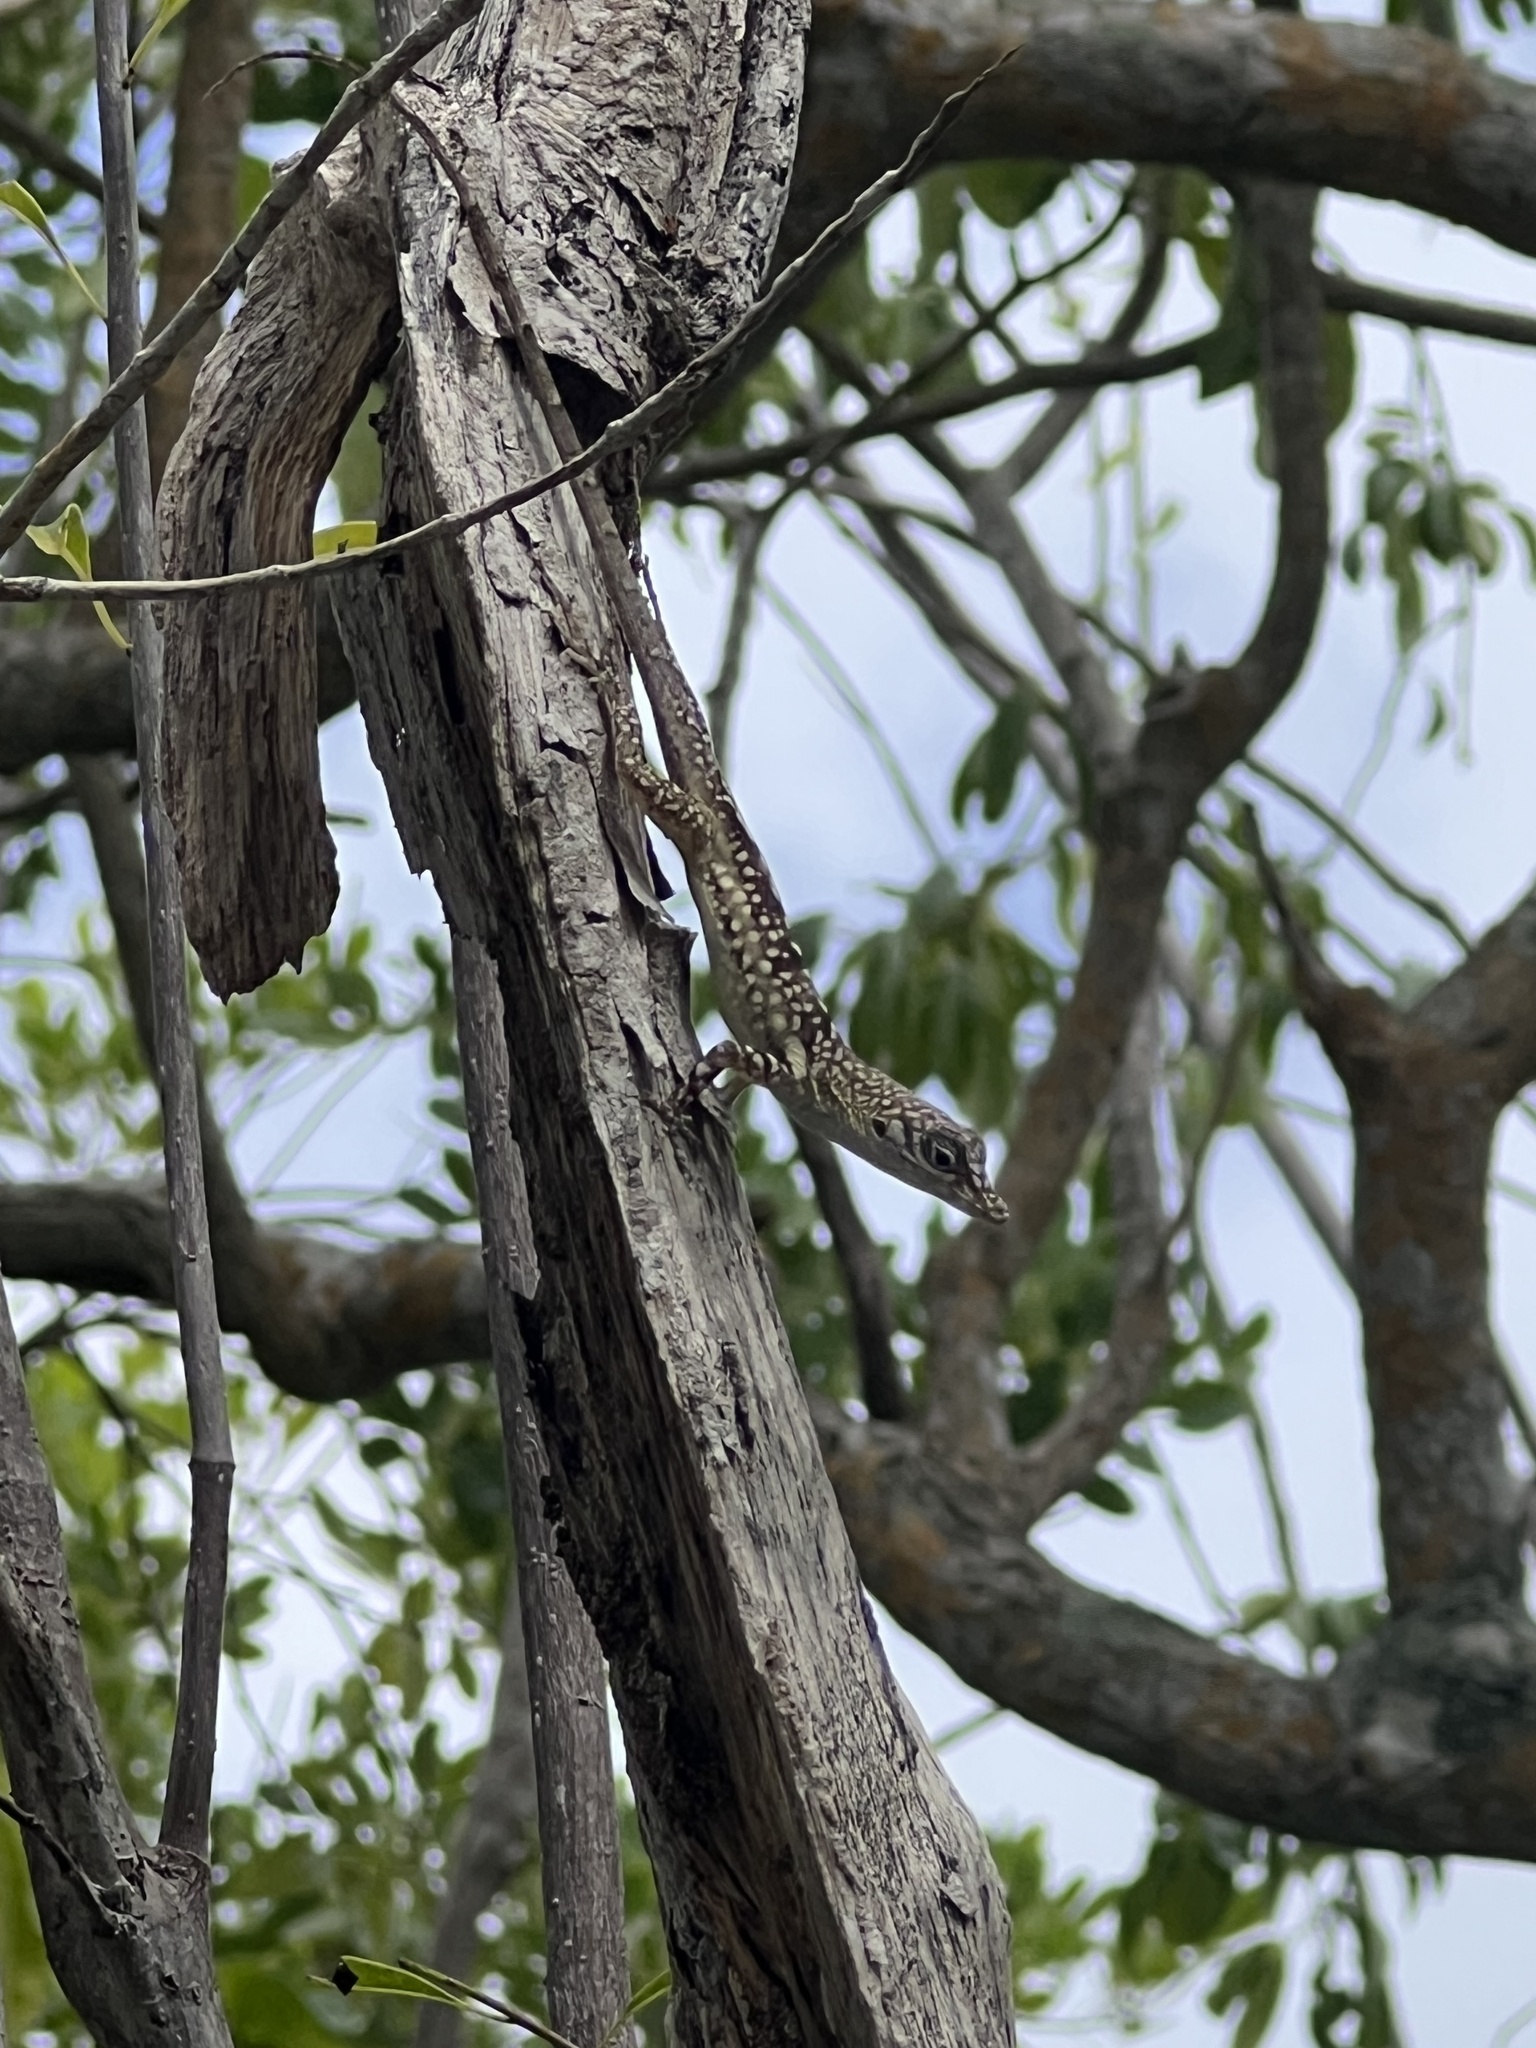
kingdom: Animalia
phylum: Chordata
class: Squamata
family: Dactyloidae
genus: Anolis
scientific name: Anolis conspersus
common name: Grand cayman anole
